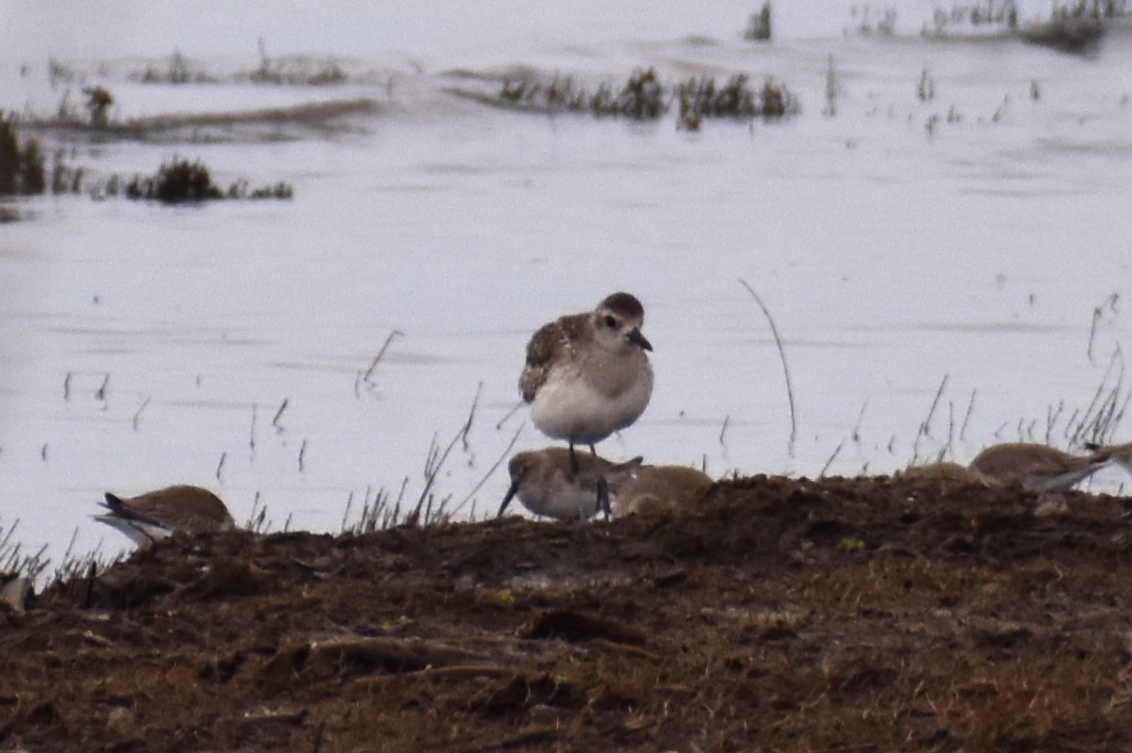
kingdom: Animalia
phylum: Chordata
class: Aves
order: Charadriiformes
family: Charadriidae
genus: Pluvialis
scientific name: Pluvialis squatarola
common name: Grey plover
